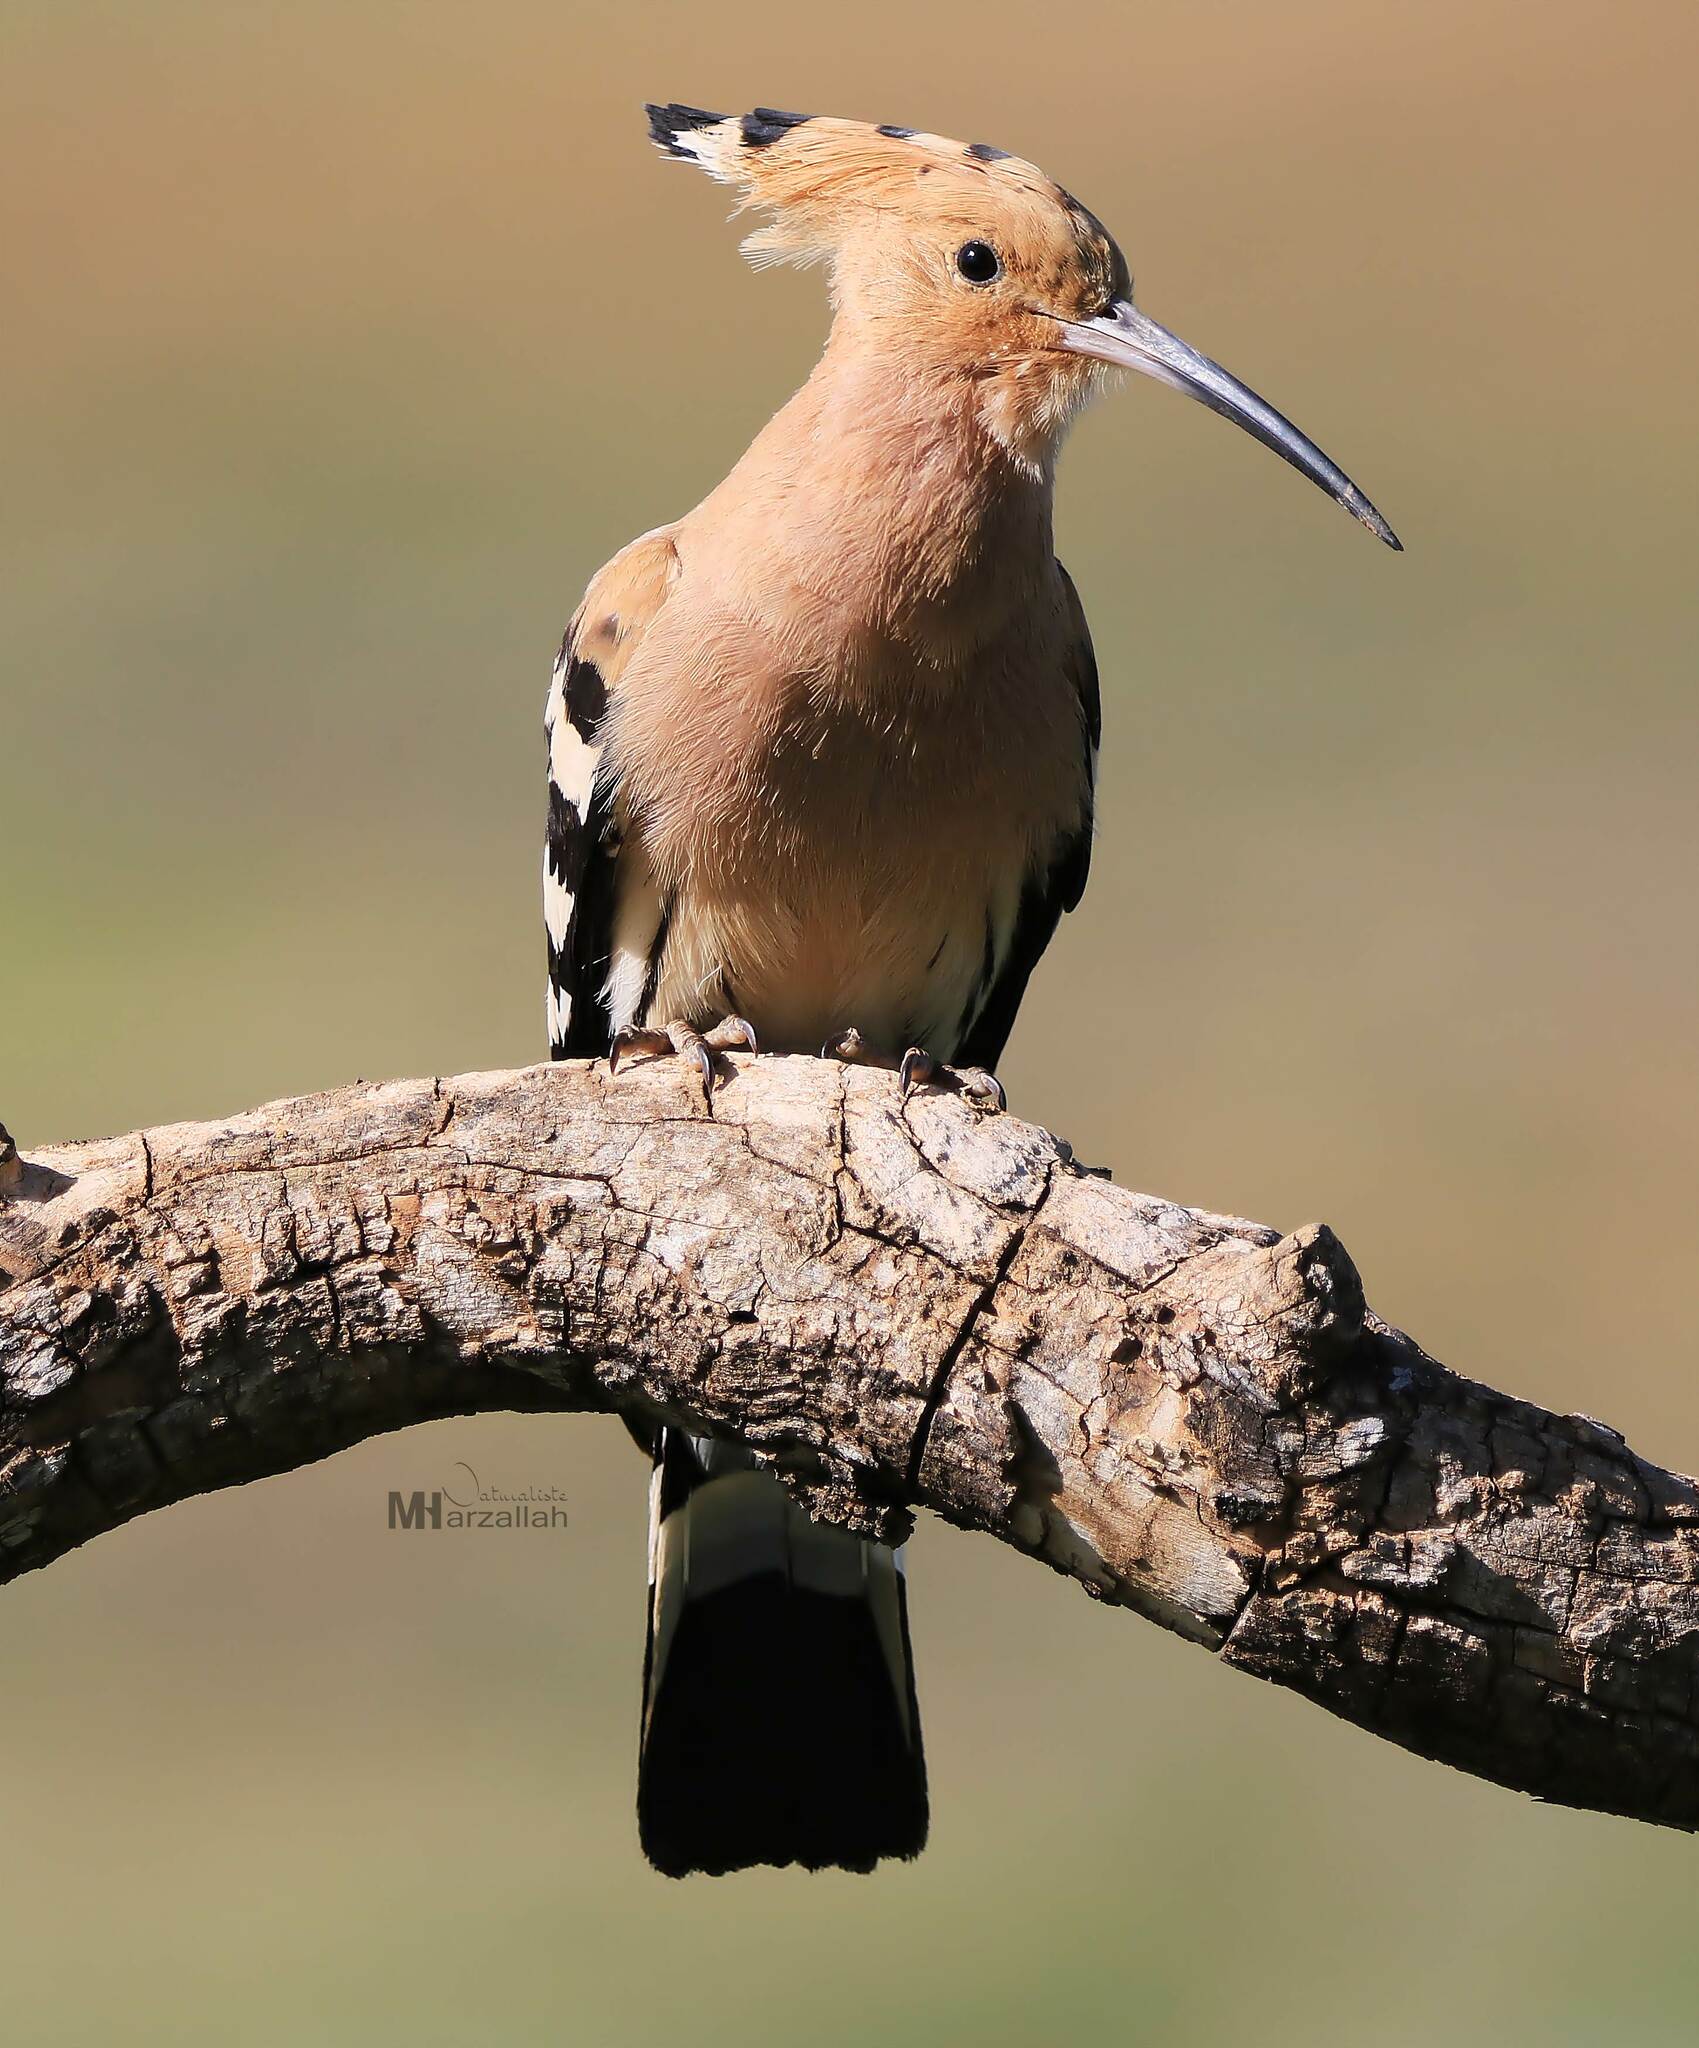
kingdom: Animalia
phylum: Chordata
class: Aves
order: Bucerotiformes
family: Upupidae
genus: Upupa
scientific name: Upupa epops
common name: Eurasian hoopoe
